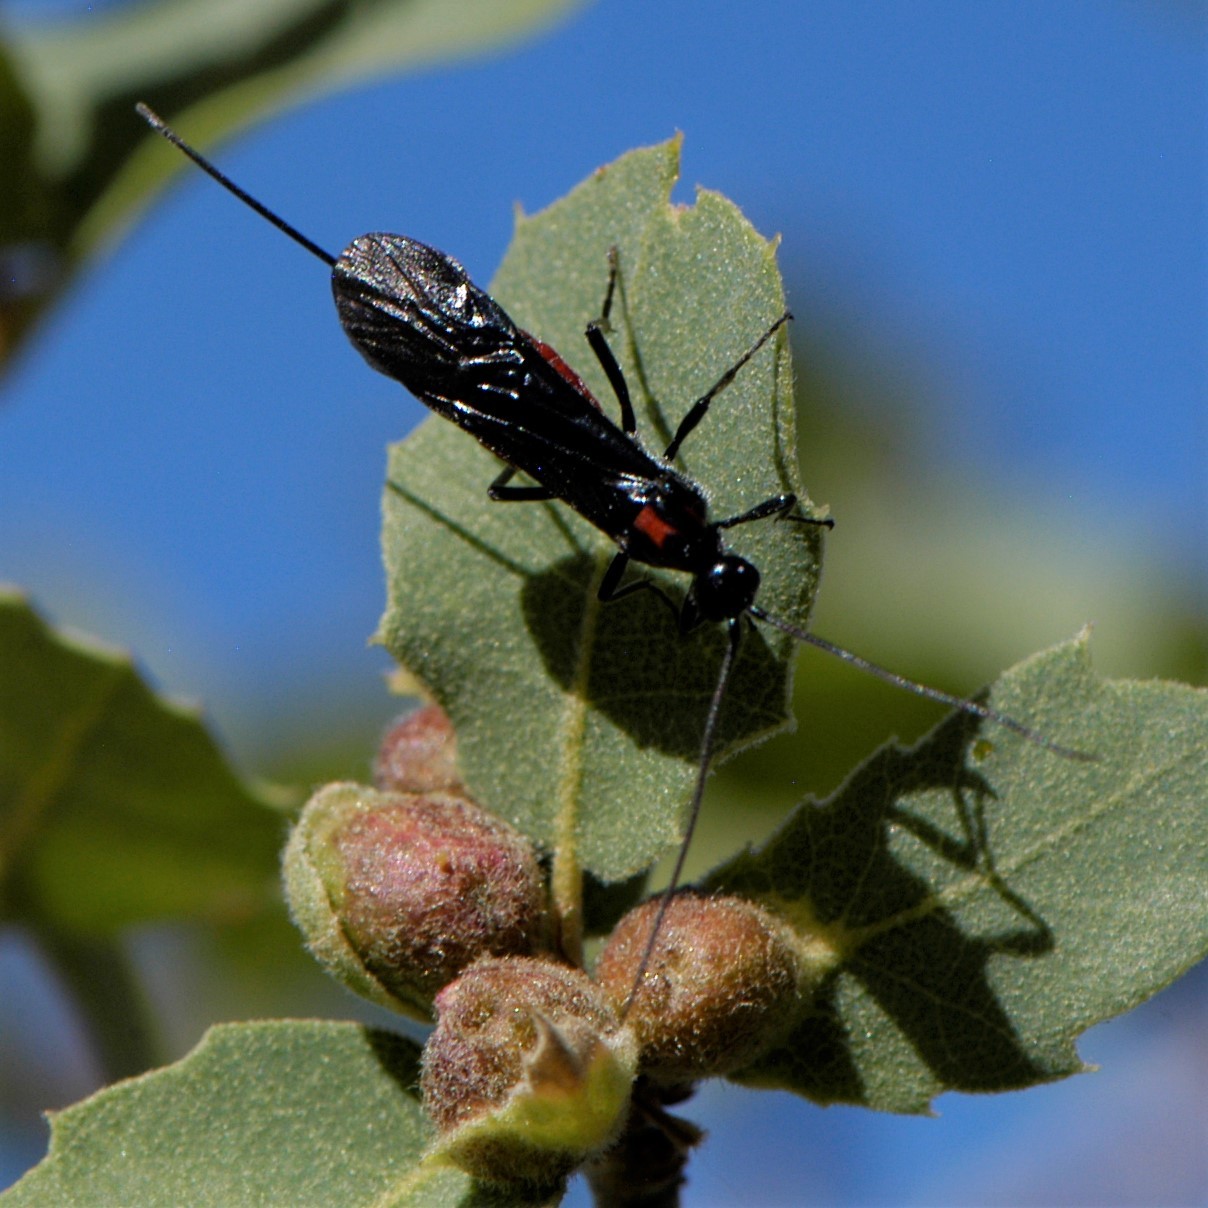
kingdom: Animalia
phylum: Arthropoda
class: Insecta
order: Hymenoptera
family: Braconidae
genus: Atanycolus
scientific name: Atanycolus
